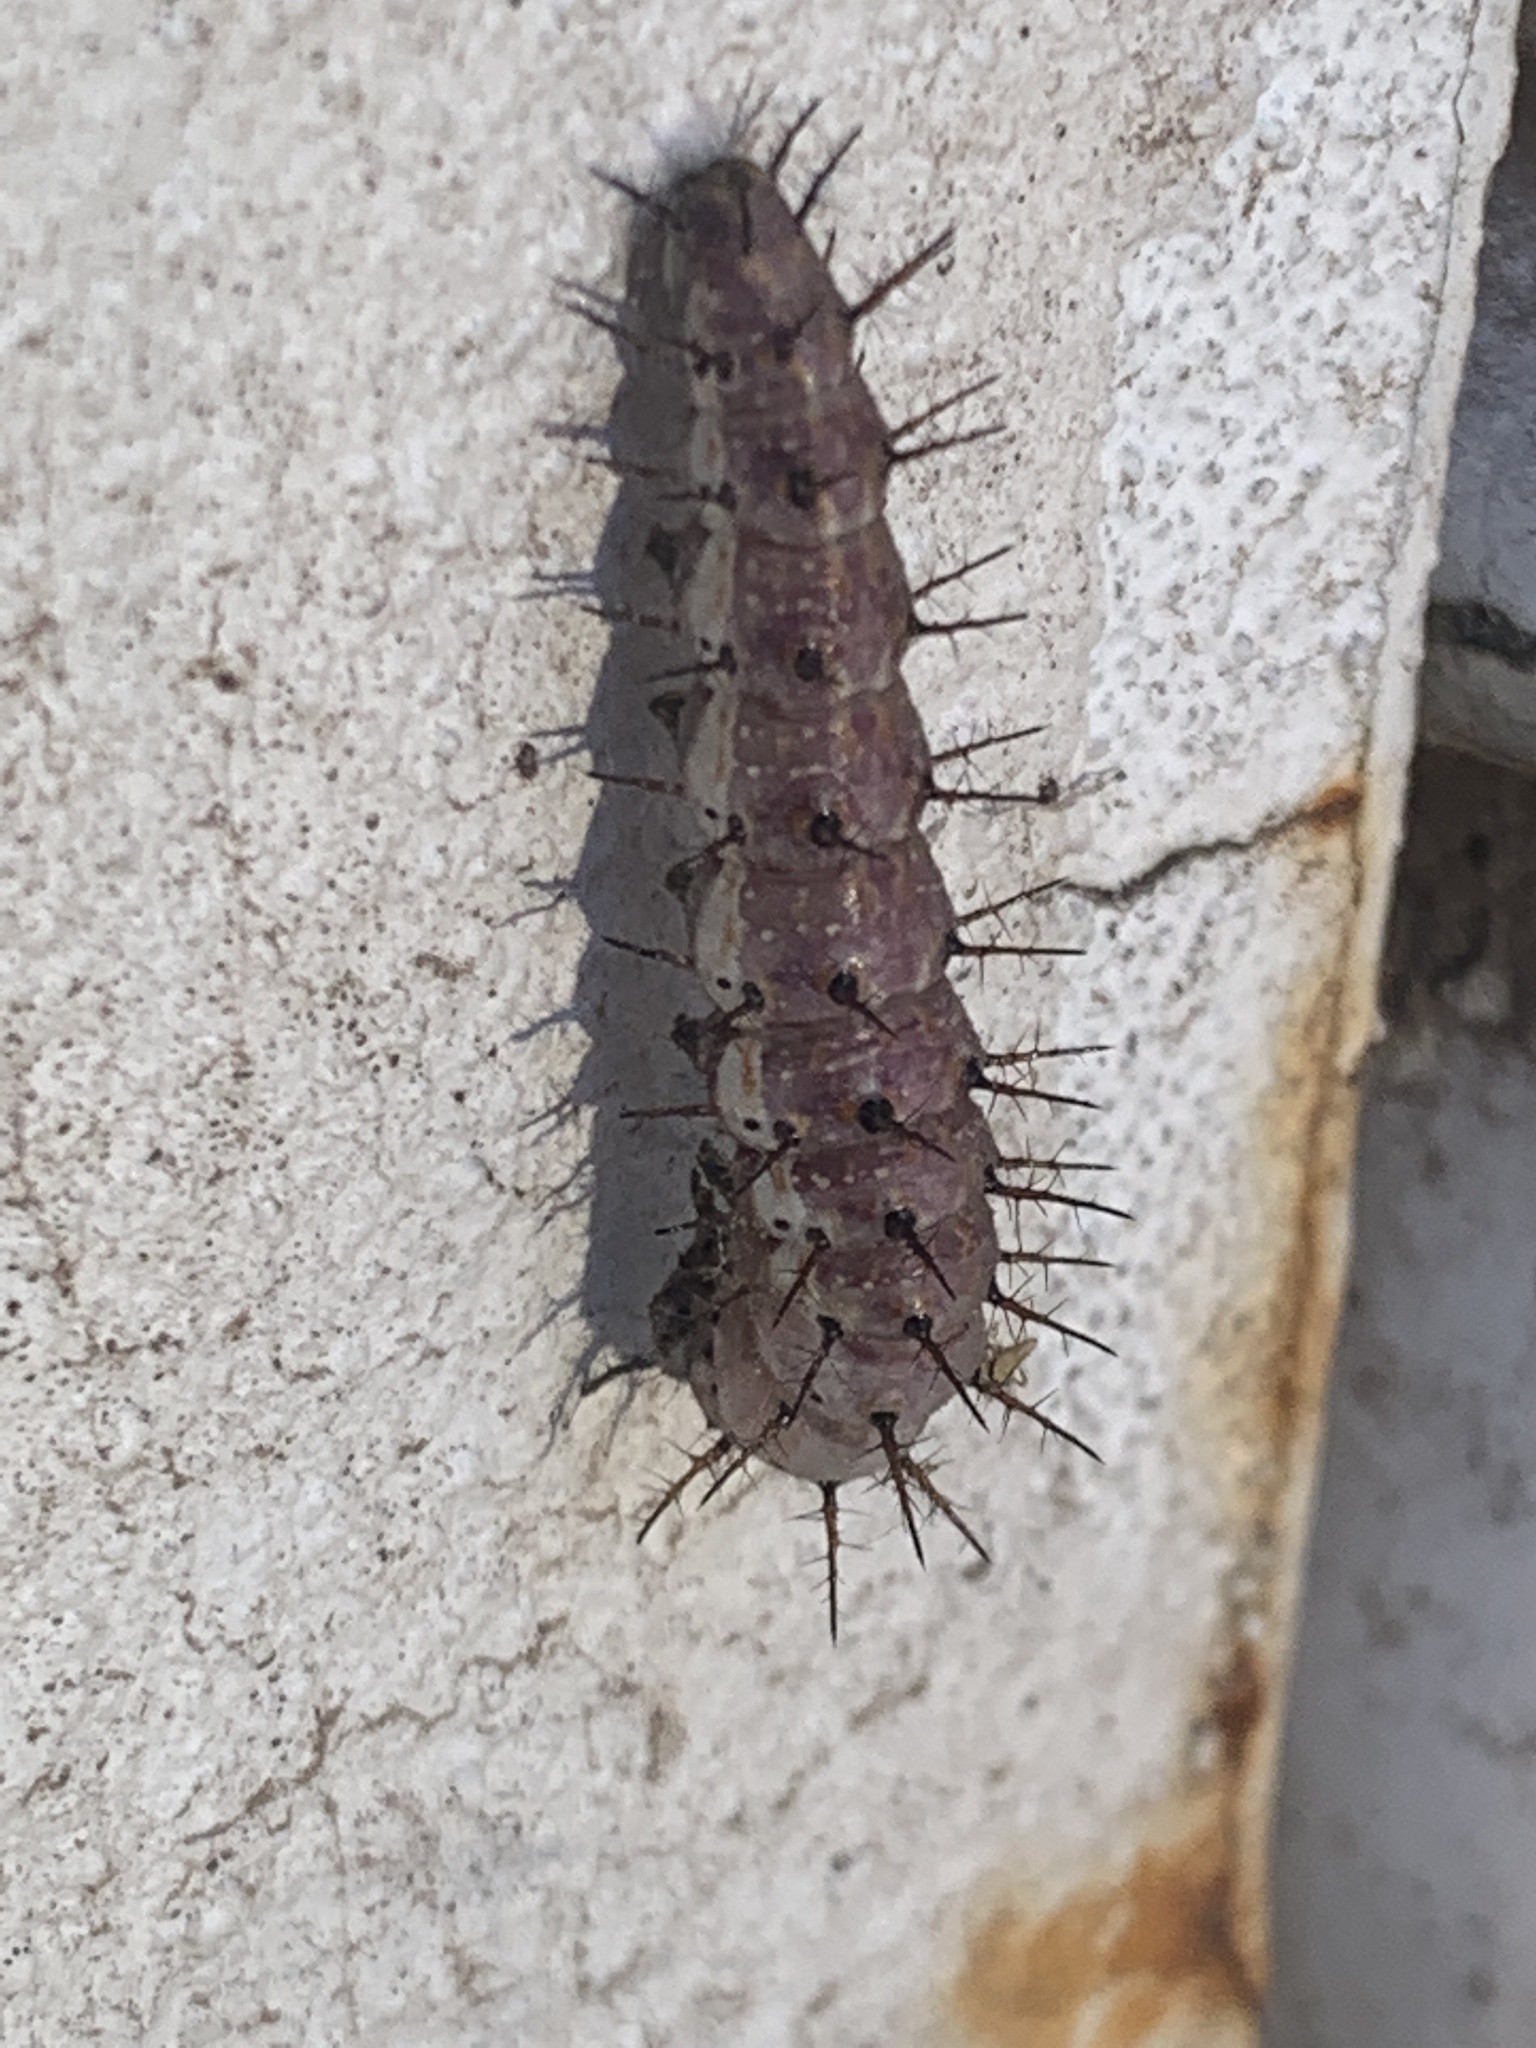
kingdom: Animalia
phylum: Arthropoda
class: Insecta
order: Lepidoptera
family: Nymphalidae
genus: Dione
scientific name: Dione vanillae
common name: Gulf fritillary
